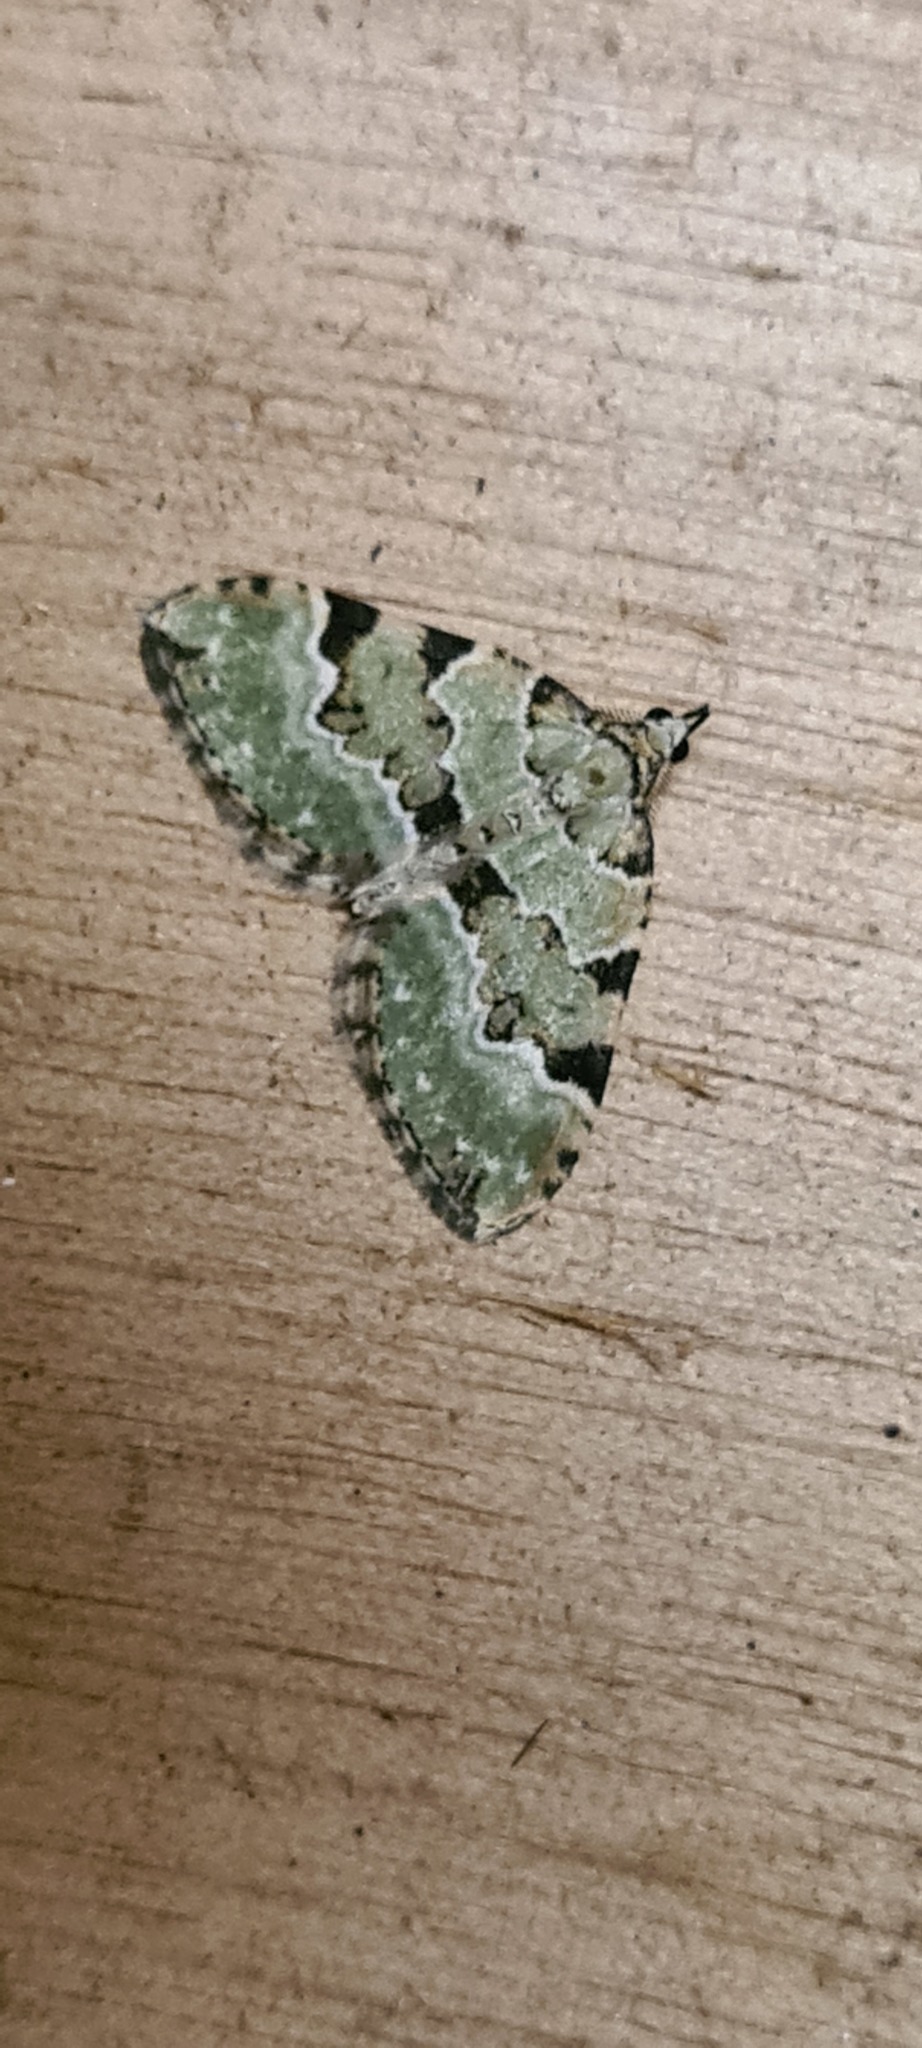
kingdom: Animalia
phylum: Arthropoda
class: Insecta
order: Lepidoptera
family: Geometridae
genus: Colostygia
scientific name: Colostygia pectinataria
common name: Green carpet
